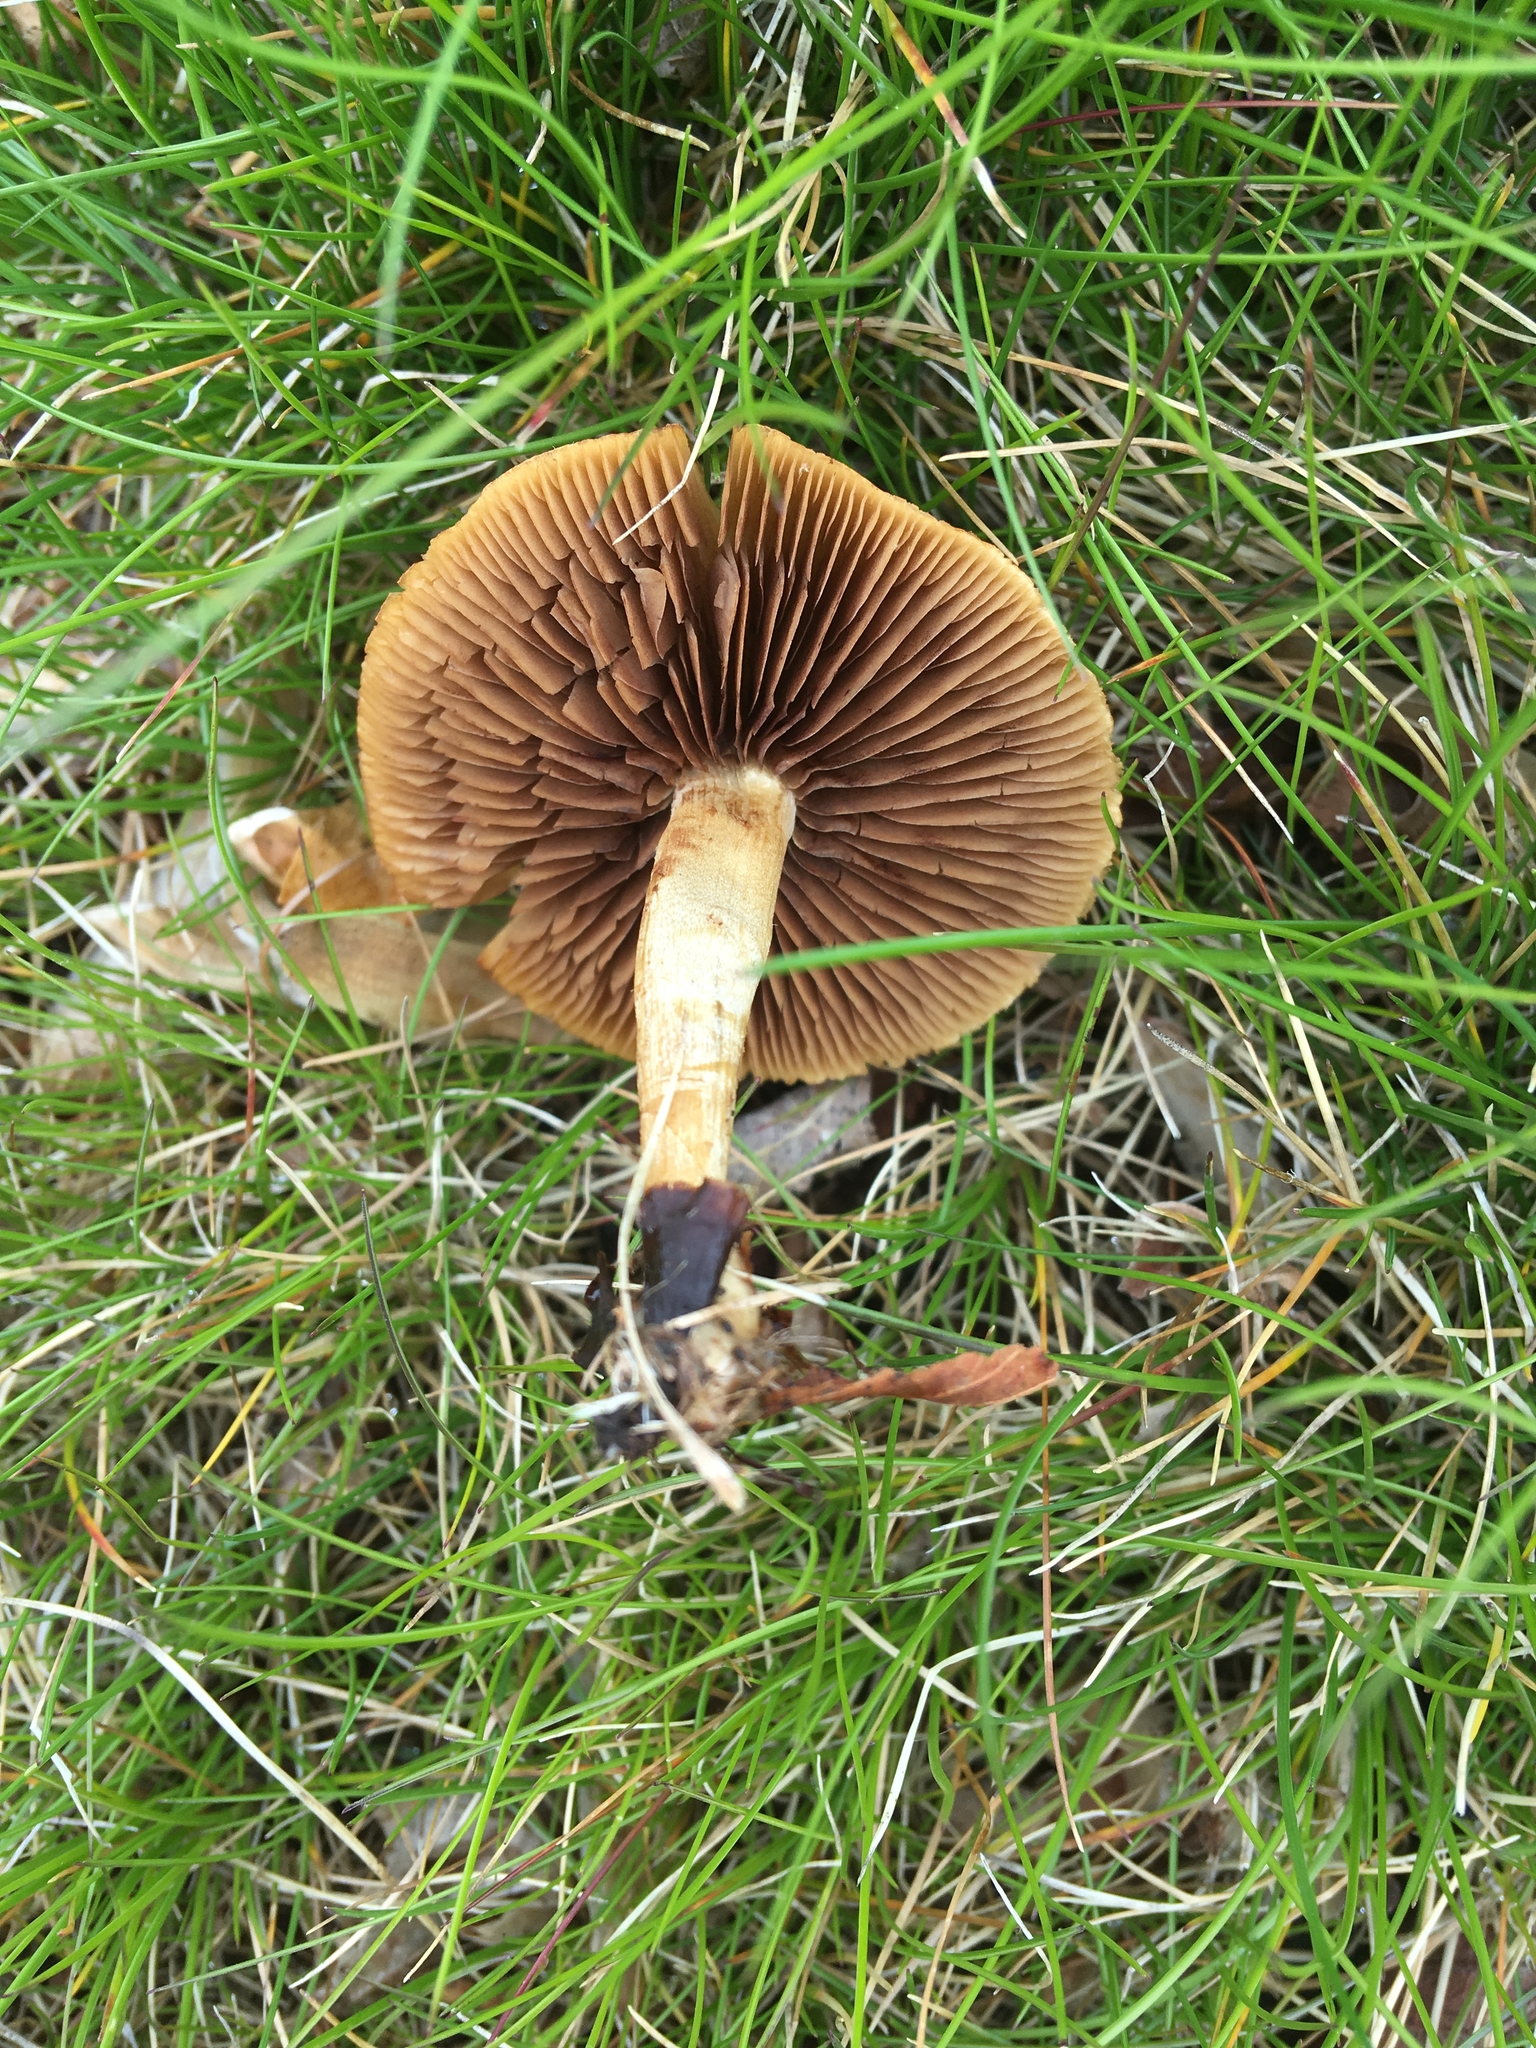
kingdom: Fungi
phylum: Basidiomycota
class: Agaricomycetes
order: Agaricales
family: Strophariaceae
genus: Agrocybe
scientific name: Agrocybe pediades
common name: Common fieldcap
